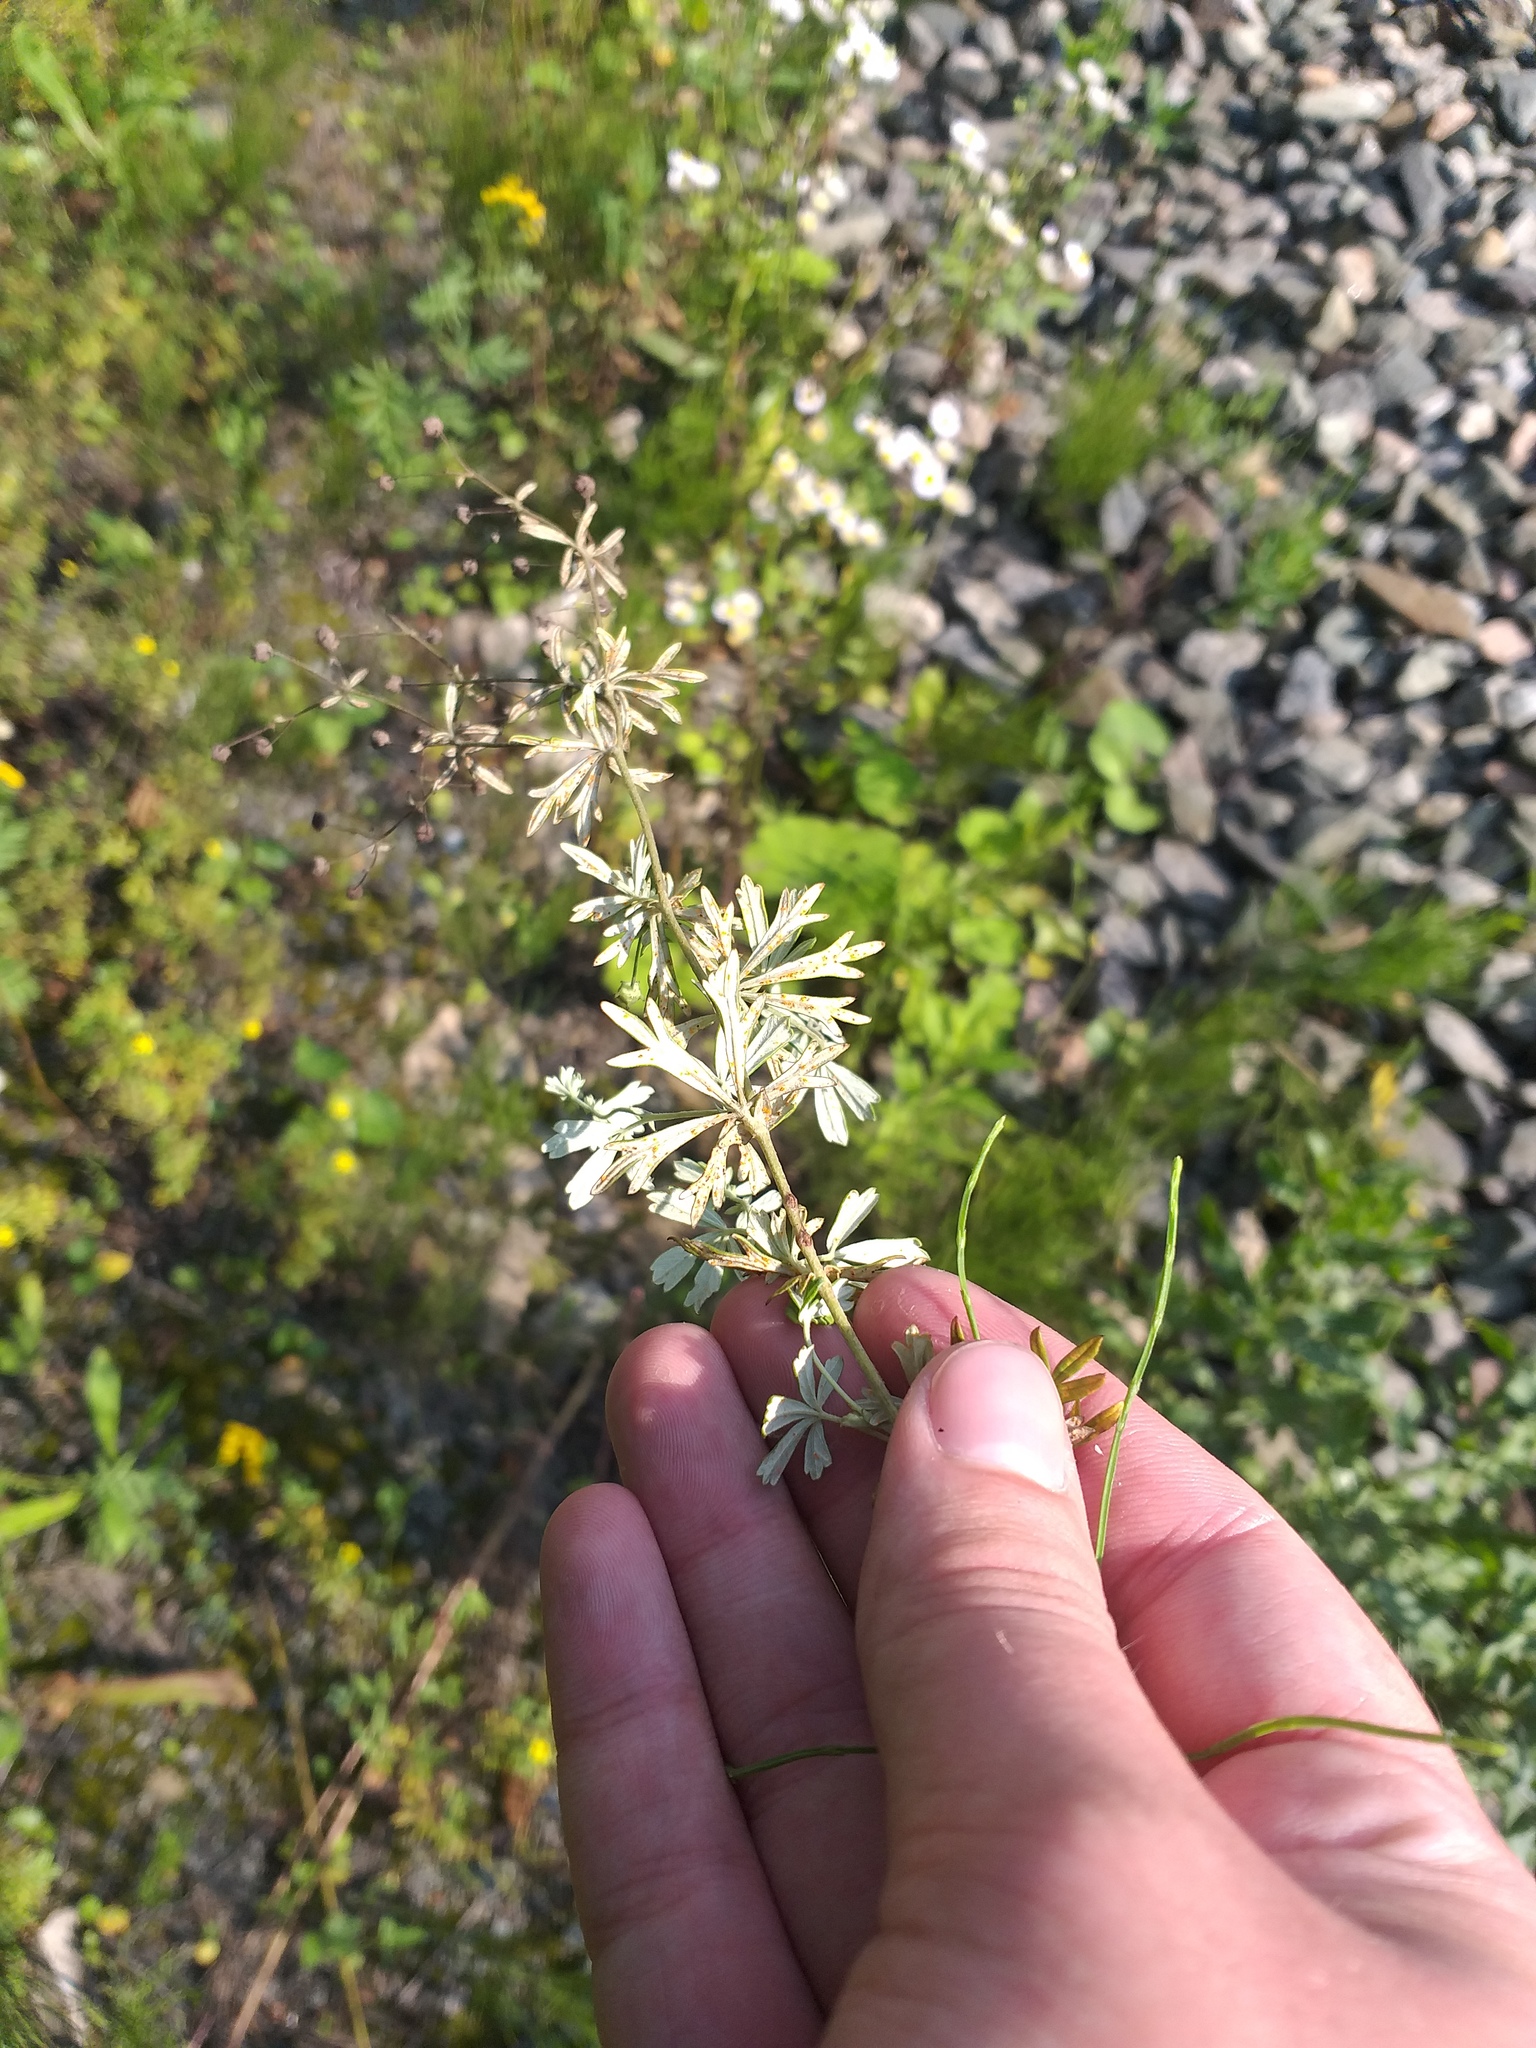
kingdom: Plantae
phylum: Tracheophyta
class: Magnoliopsida
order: Rosales
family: Rosaceae
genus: Potentilla
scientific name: Potentilla argentea
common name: Hoary cinquefoil
